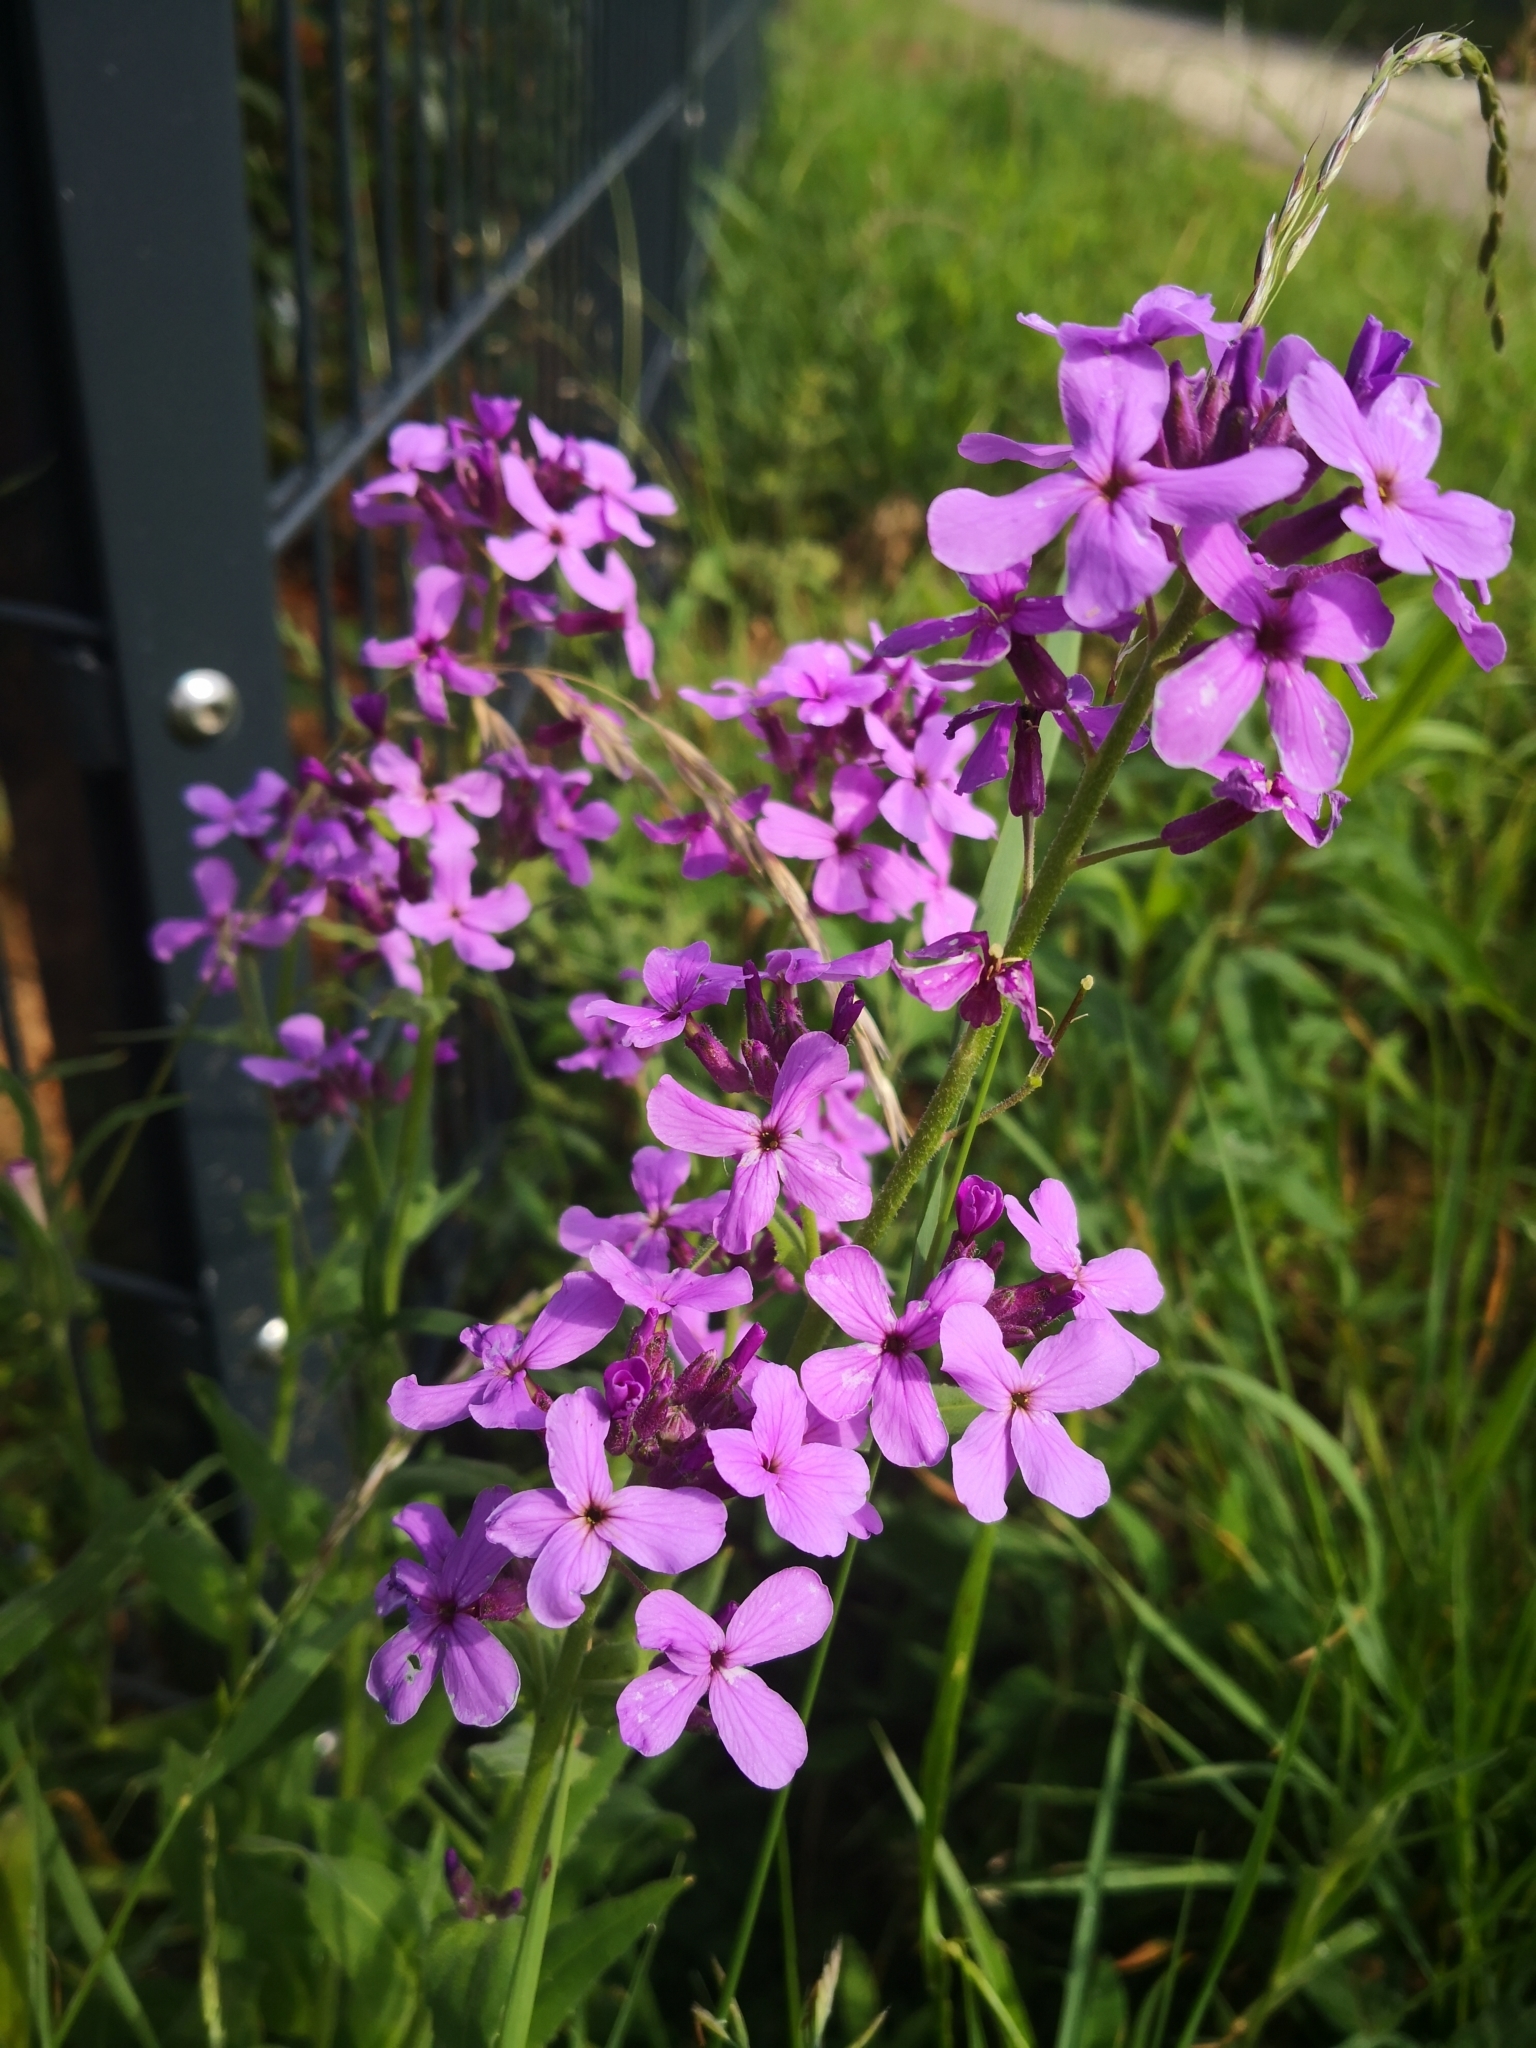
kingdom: Plantae
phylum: Tracheophyta
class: Magnoliopsida
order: Brassicales
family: Brassicaceae
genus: Hesperis
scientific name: Hesperis matronalis
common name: Dame's-violet
